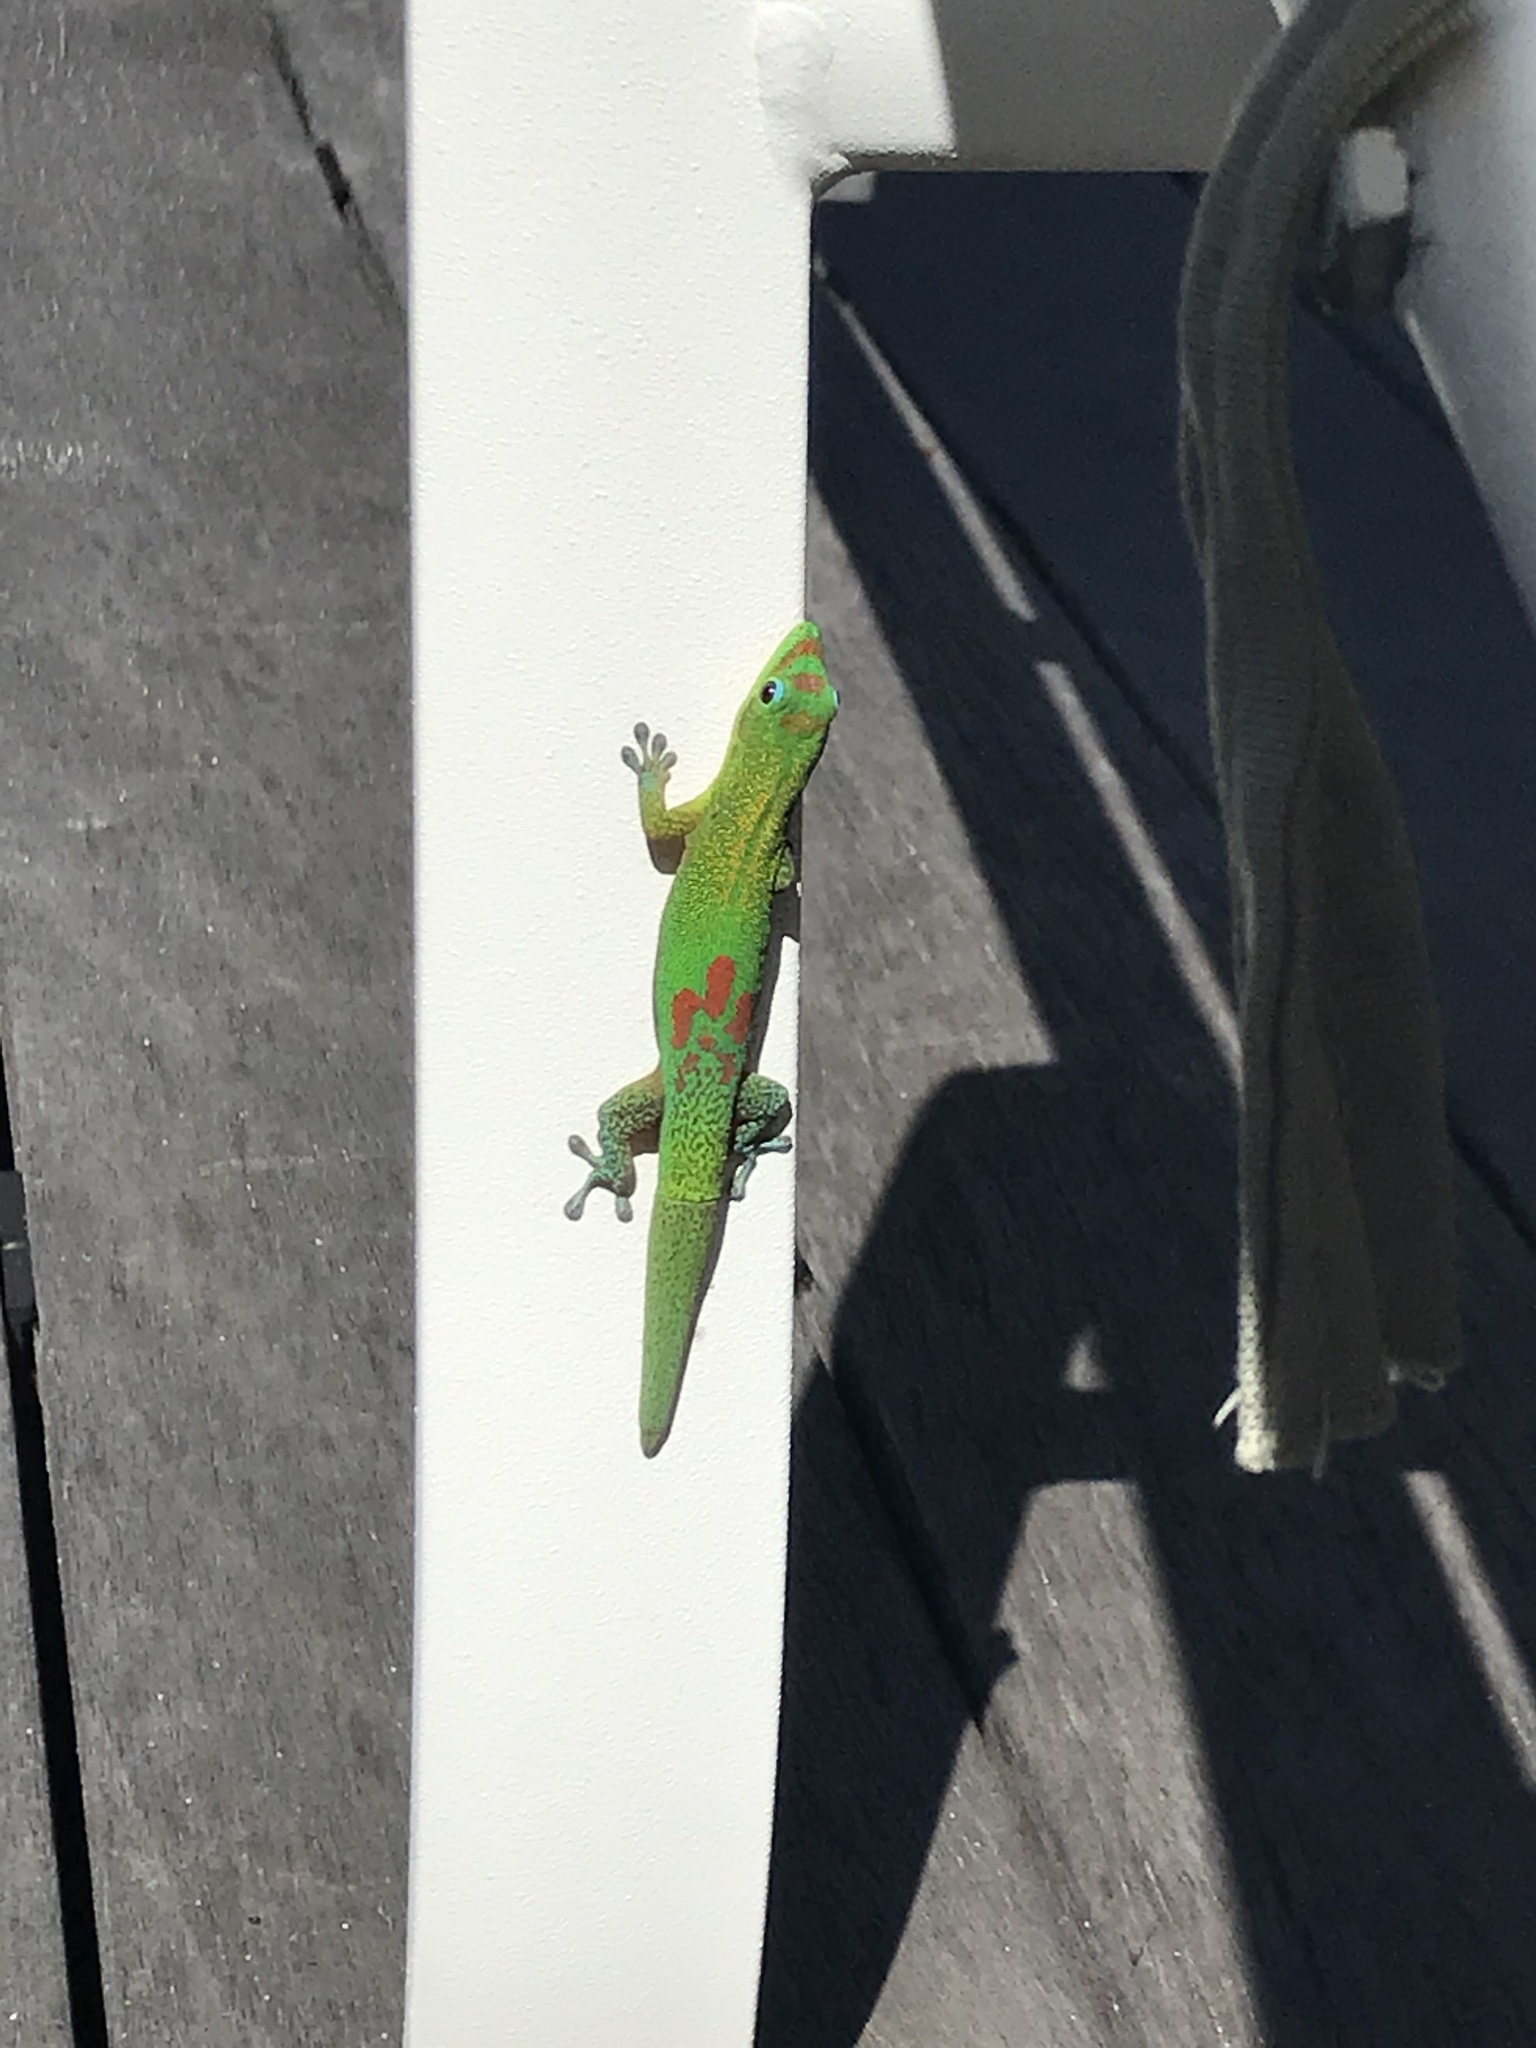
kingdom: Animalia
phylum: Chordata
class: Squamata
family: Gekkonidae
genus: Phelsuma
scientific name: Phelsuma laticauda
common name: Gold dust day gecko
